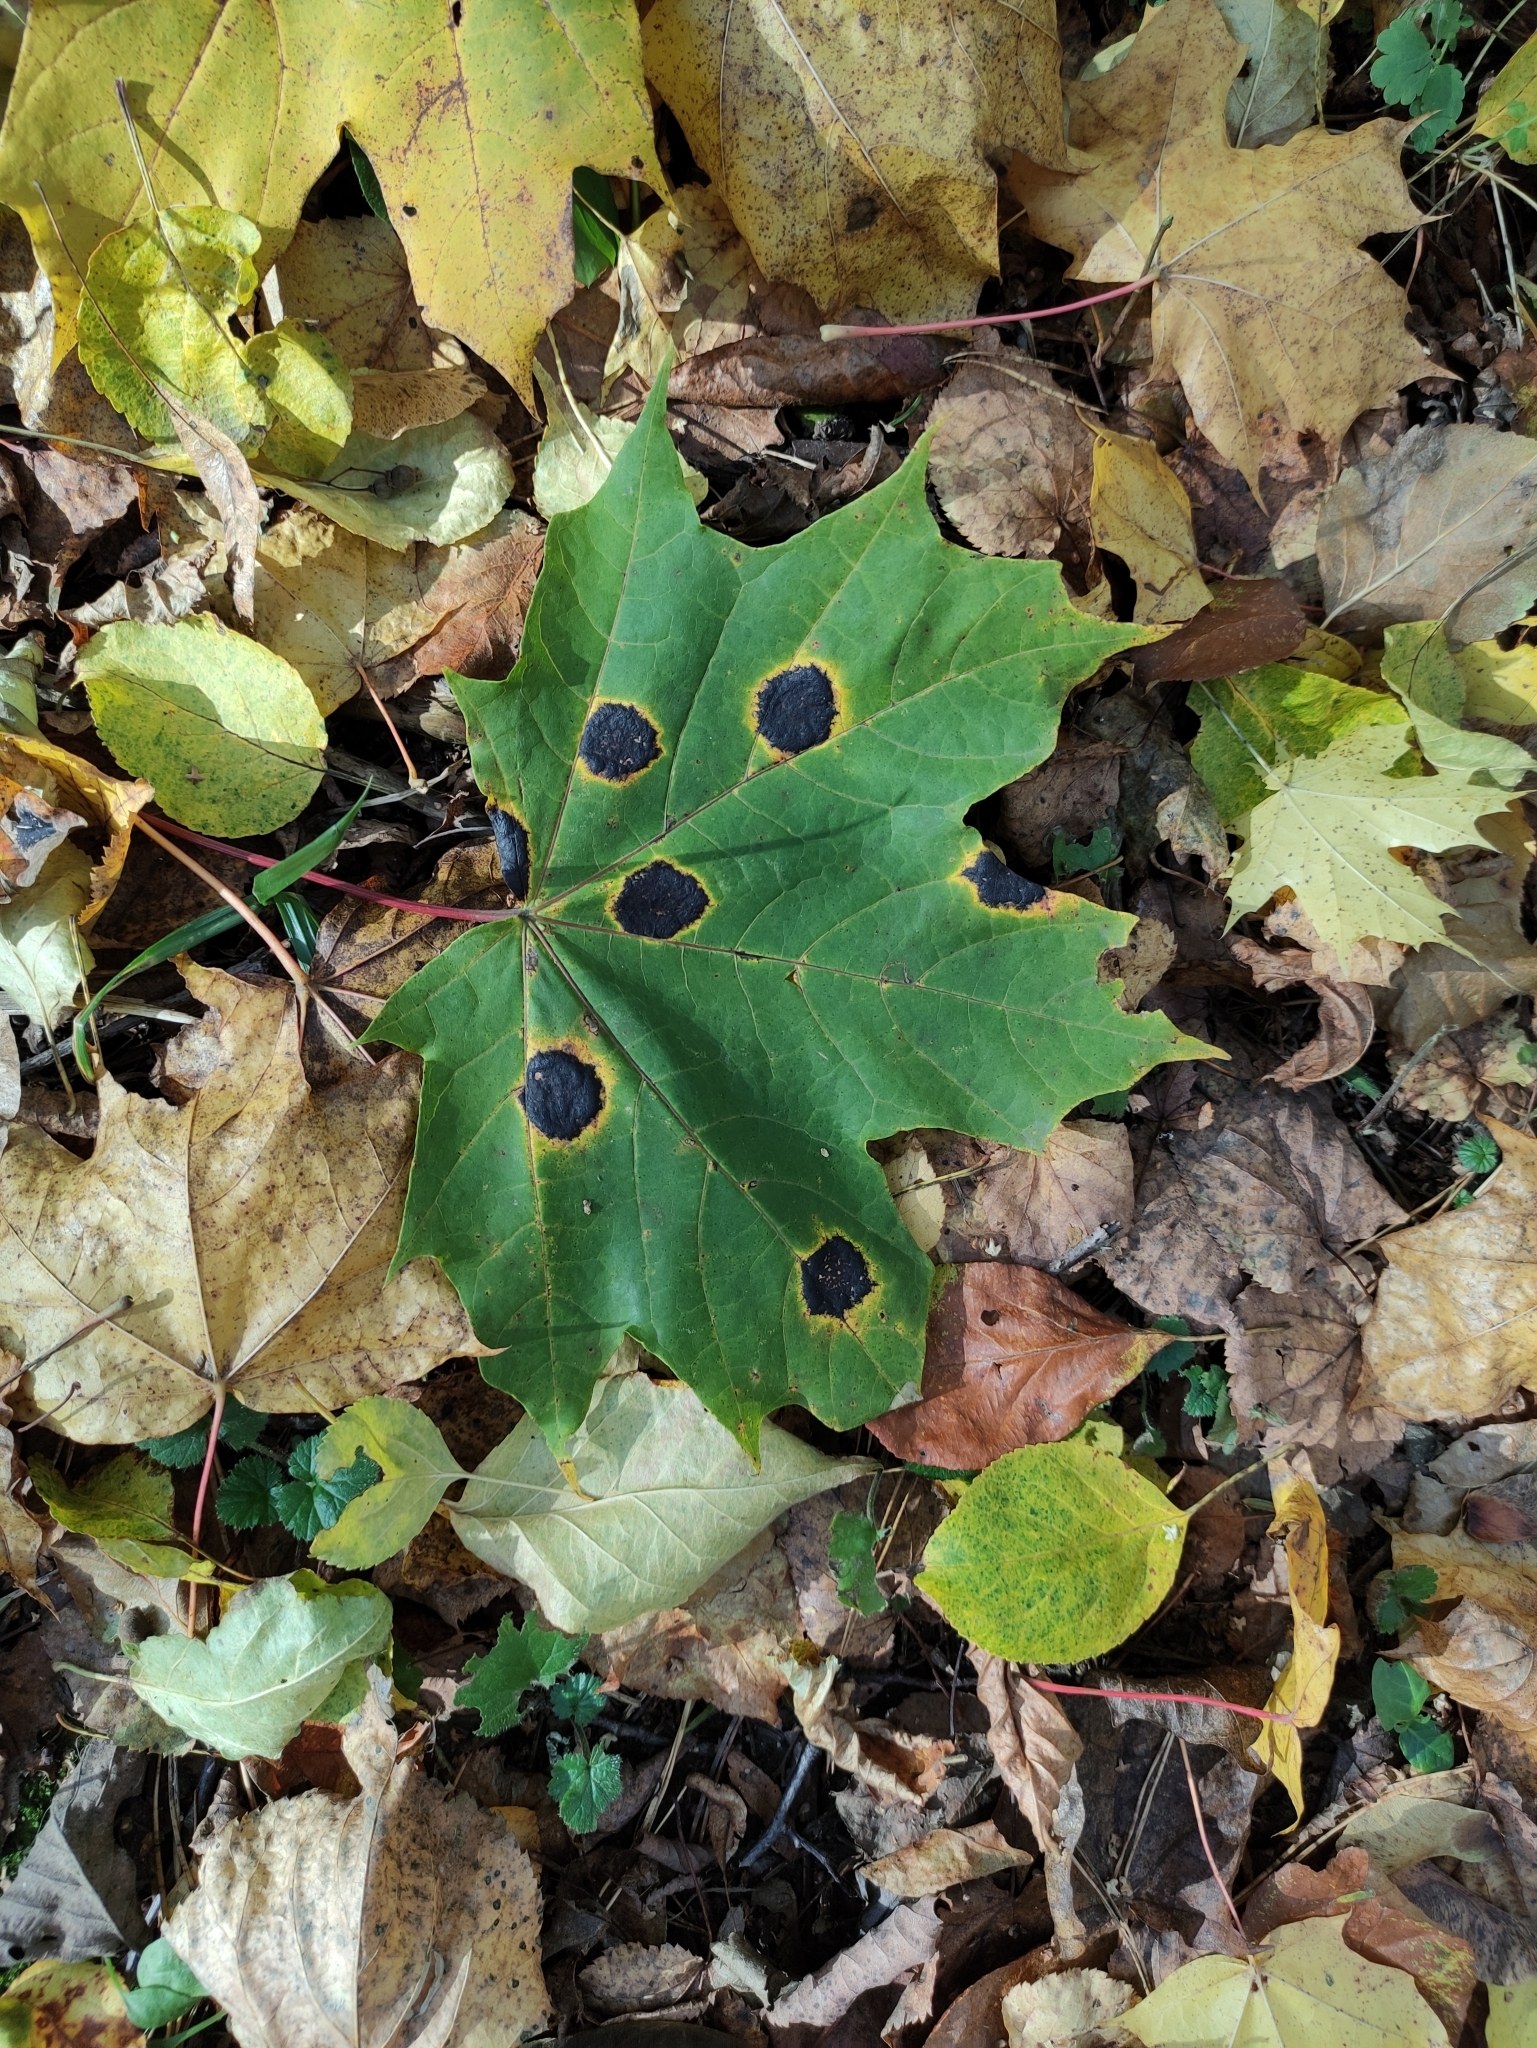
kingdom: Fungi
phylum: Ascomycota
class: Leotiomycetes
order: Rhytismatales
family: Rhytismataceae
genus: Rhytisma
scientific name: Rhytisma acerinum
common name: European tar spot
